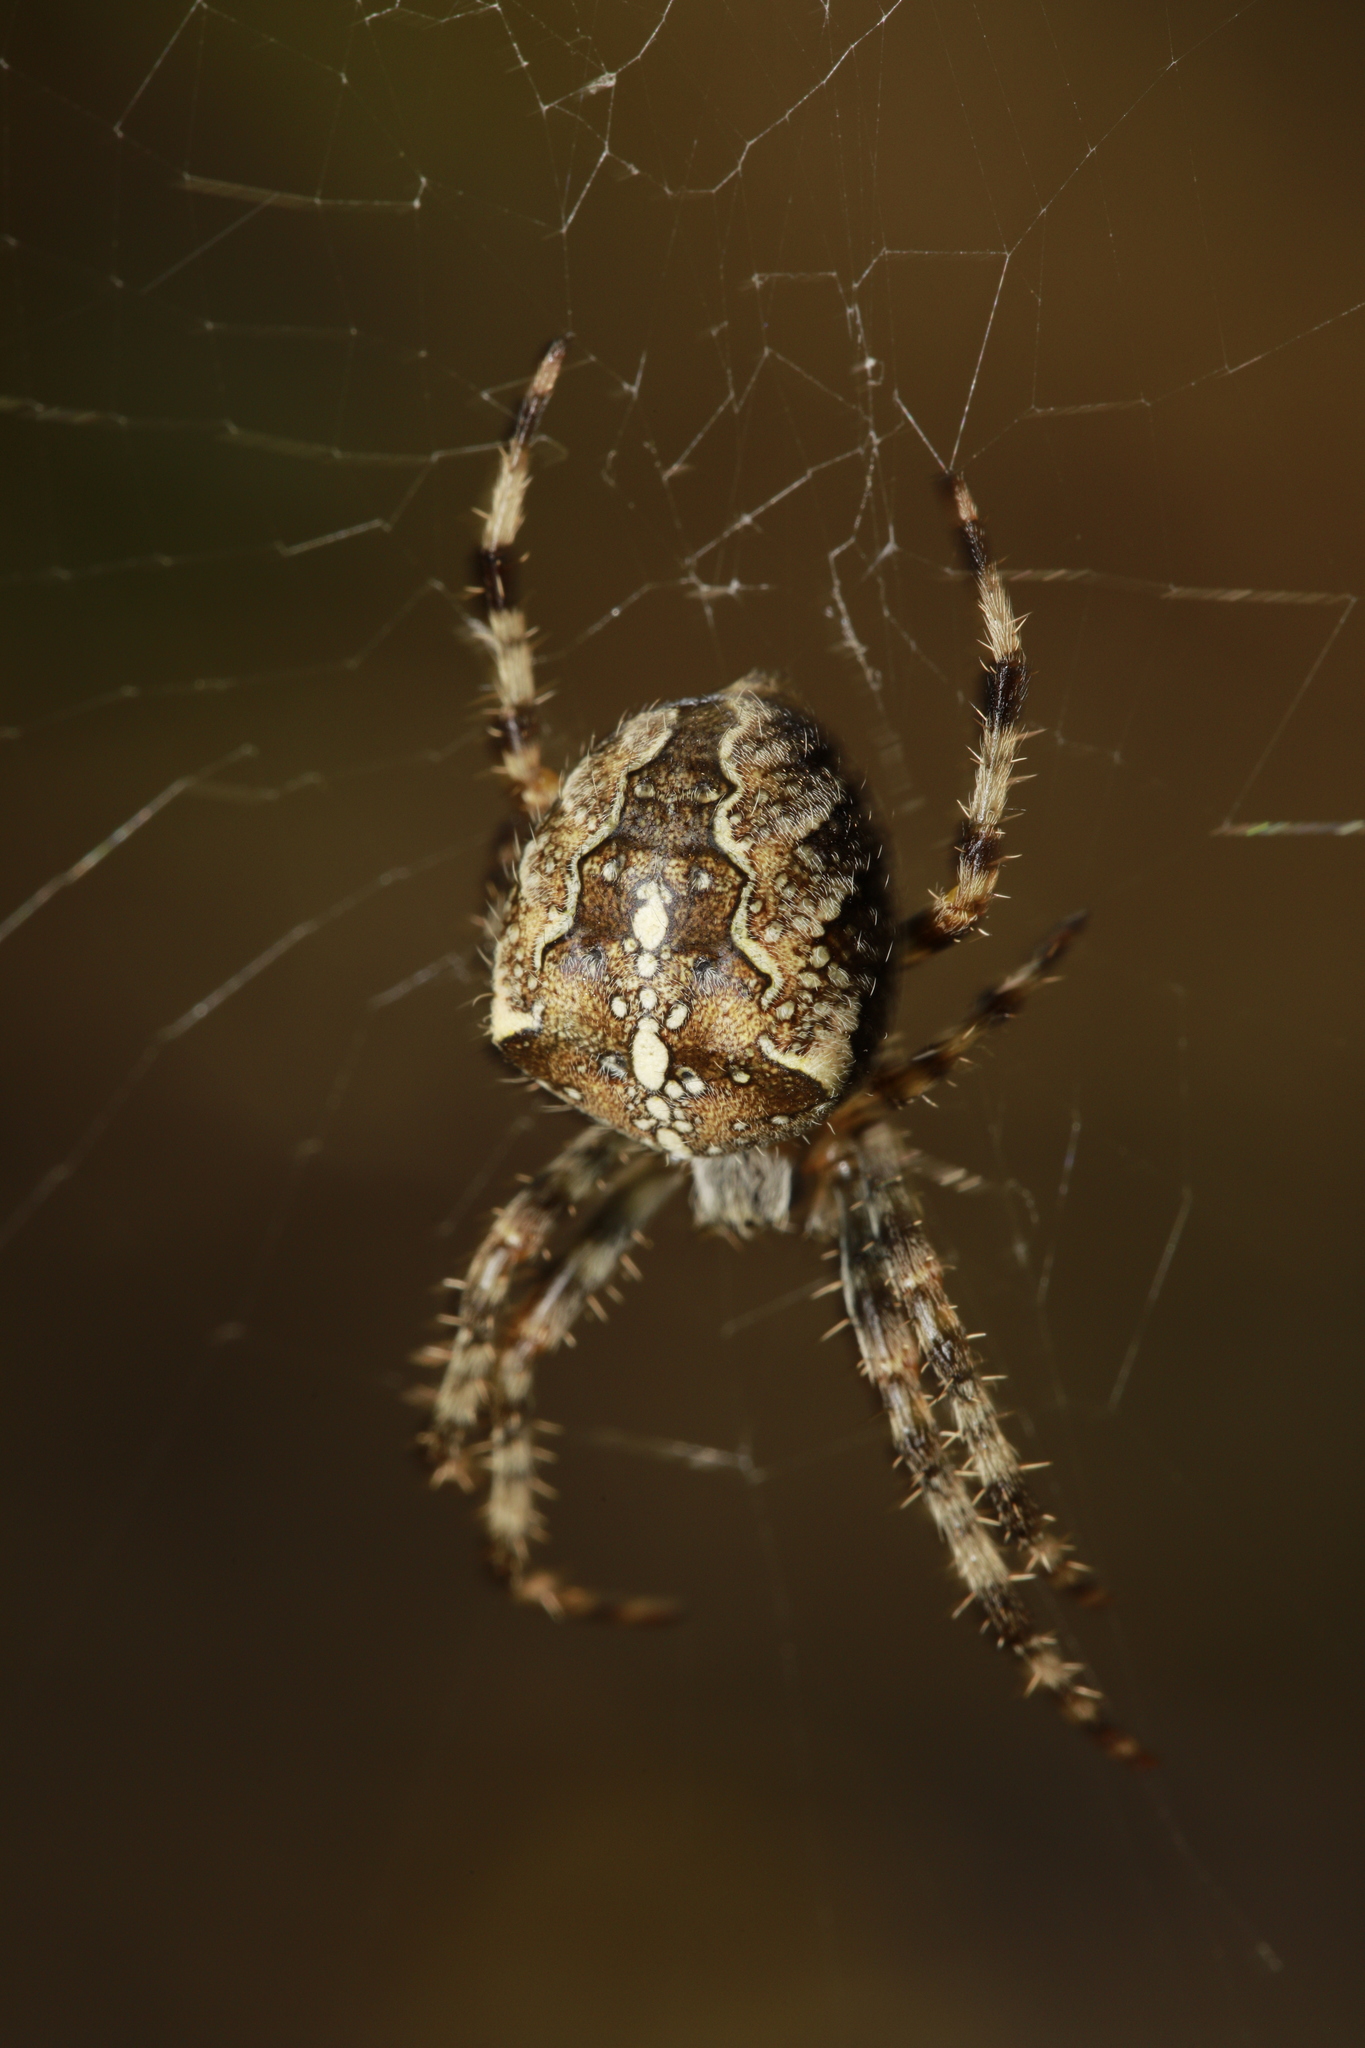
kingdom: Animalia
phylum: Arthropoda
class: Arachnida
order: Araneae
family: Araneidae
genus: Araneus
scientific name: Araneus diadematus
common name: Cross orbweaver
